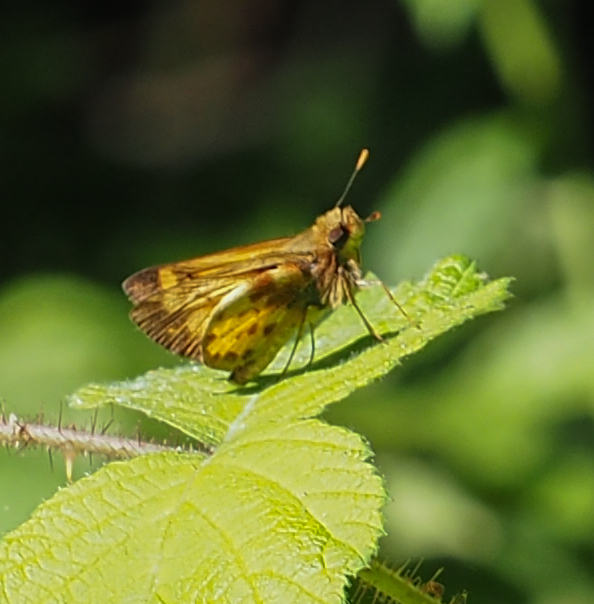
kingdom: Animalia
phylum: Arthropoda
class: Insecta
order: Lepidoptera
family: Hesperiidae
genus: Lon
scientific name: Lon zabulon
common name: Zabulon skipper
